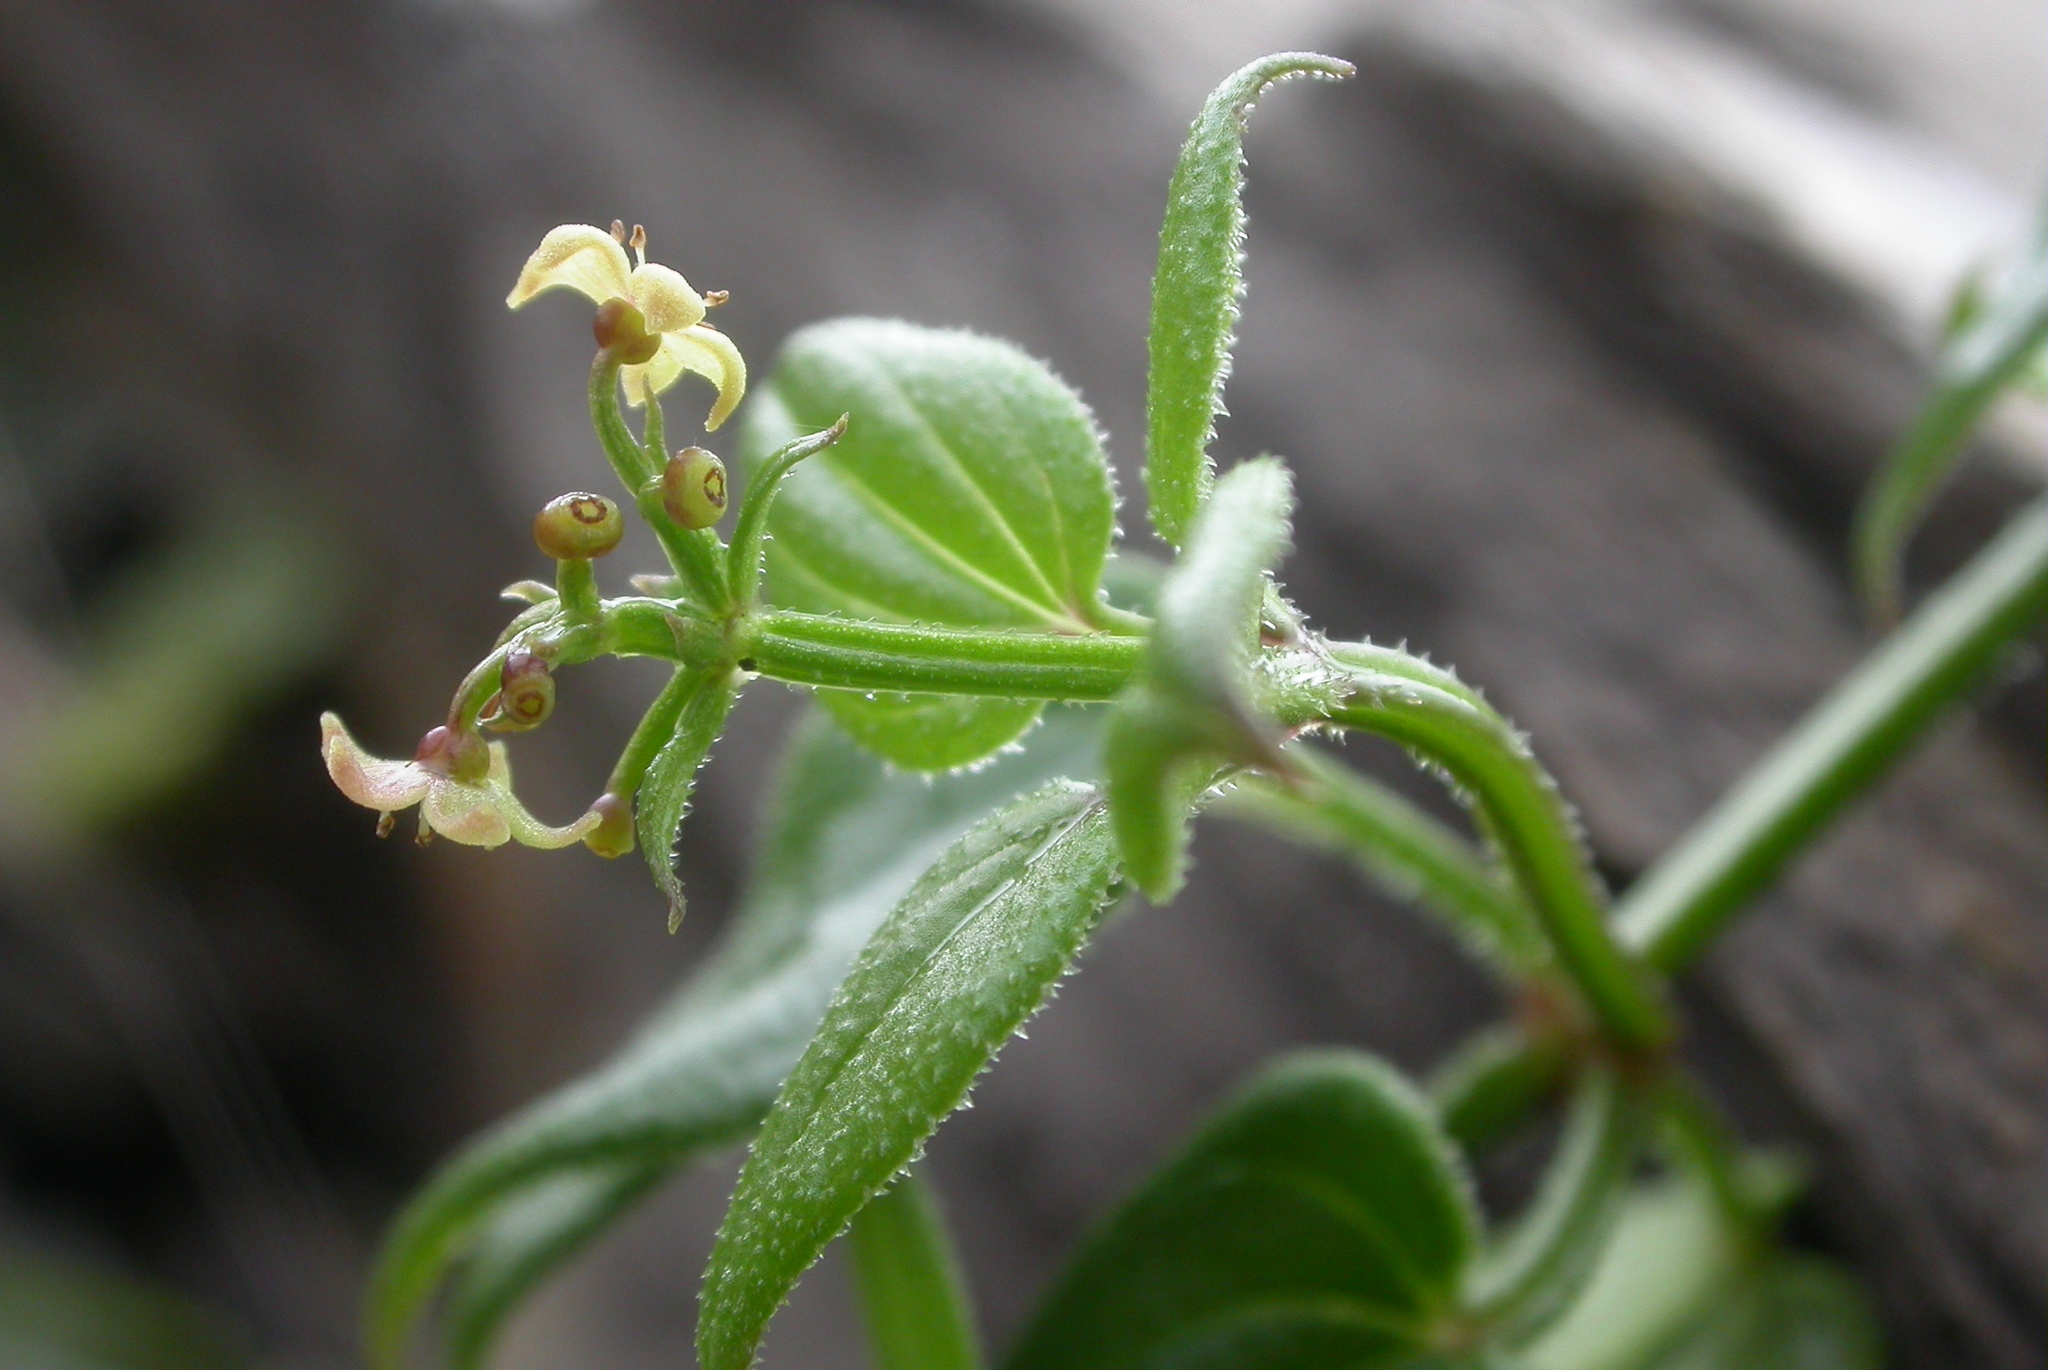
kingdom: Plantae
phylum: Tracheophyta
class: Magnoliopsida
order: Gentianales
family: Rubiaceae
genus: Rubia
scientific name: Rubia argyi
